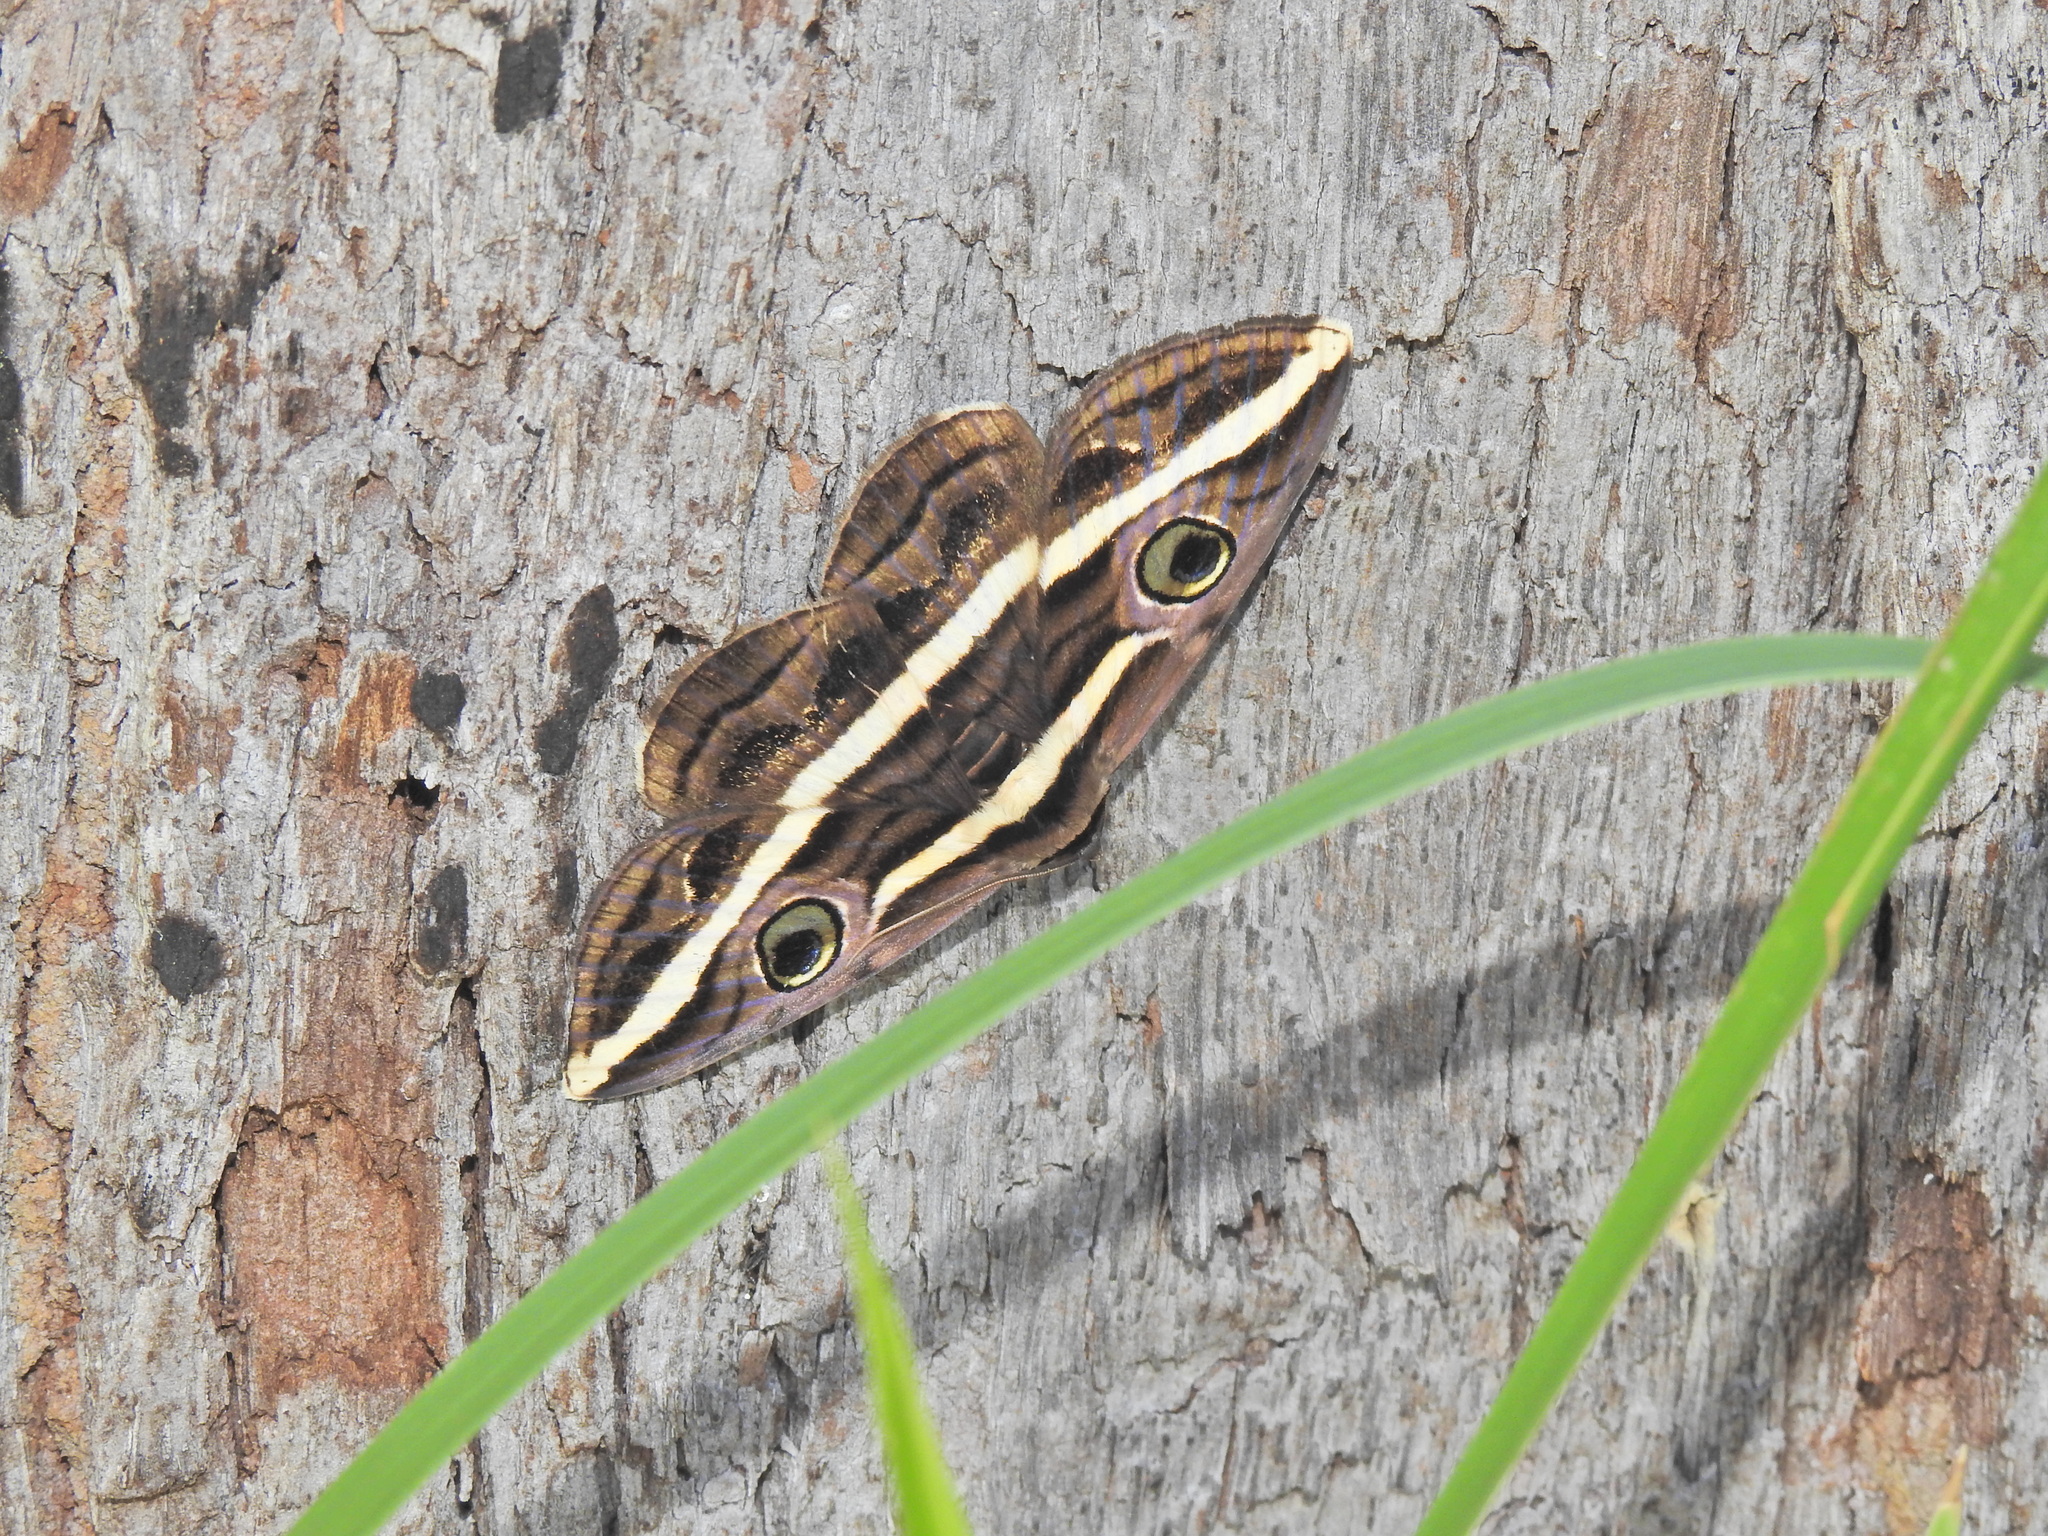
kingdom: Animalia
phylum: Arthropoda
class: Insecta
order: Lepidoptera
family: Erebidae
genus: Donuca
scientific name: Donuca rubropicta
